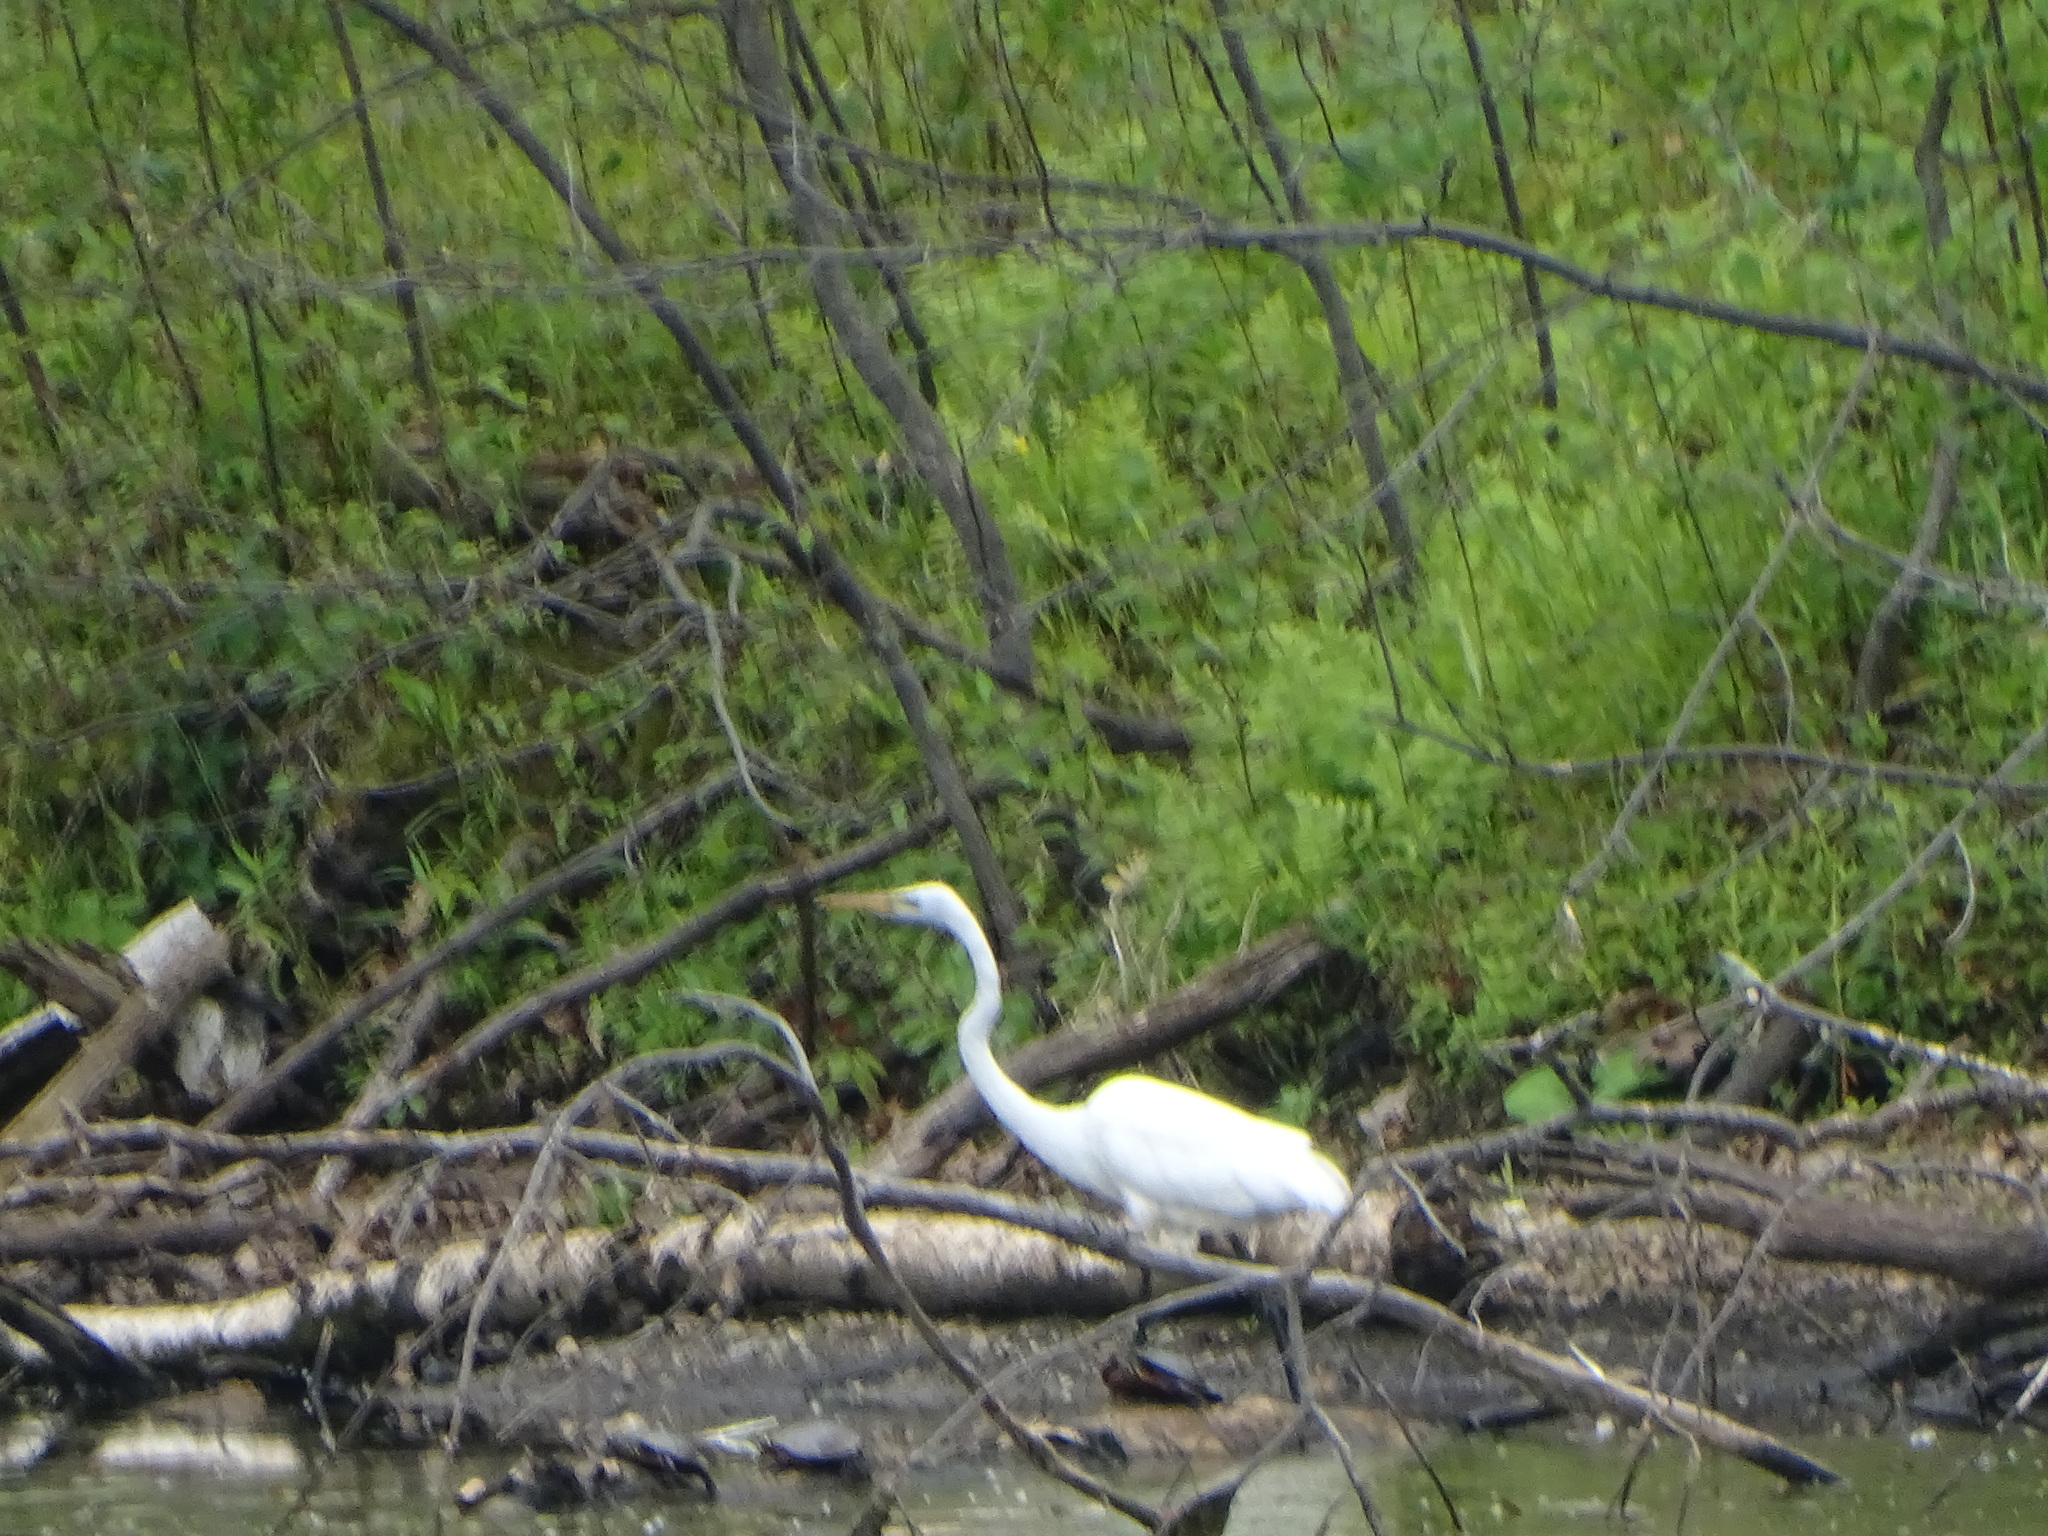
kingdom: Animalia
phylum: Chordata
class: Aves
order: Pelecaniformes
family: Ardeidae
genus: Ardea
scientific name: Ardea alba
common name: Great egret
